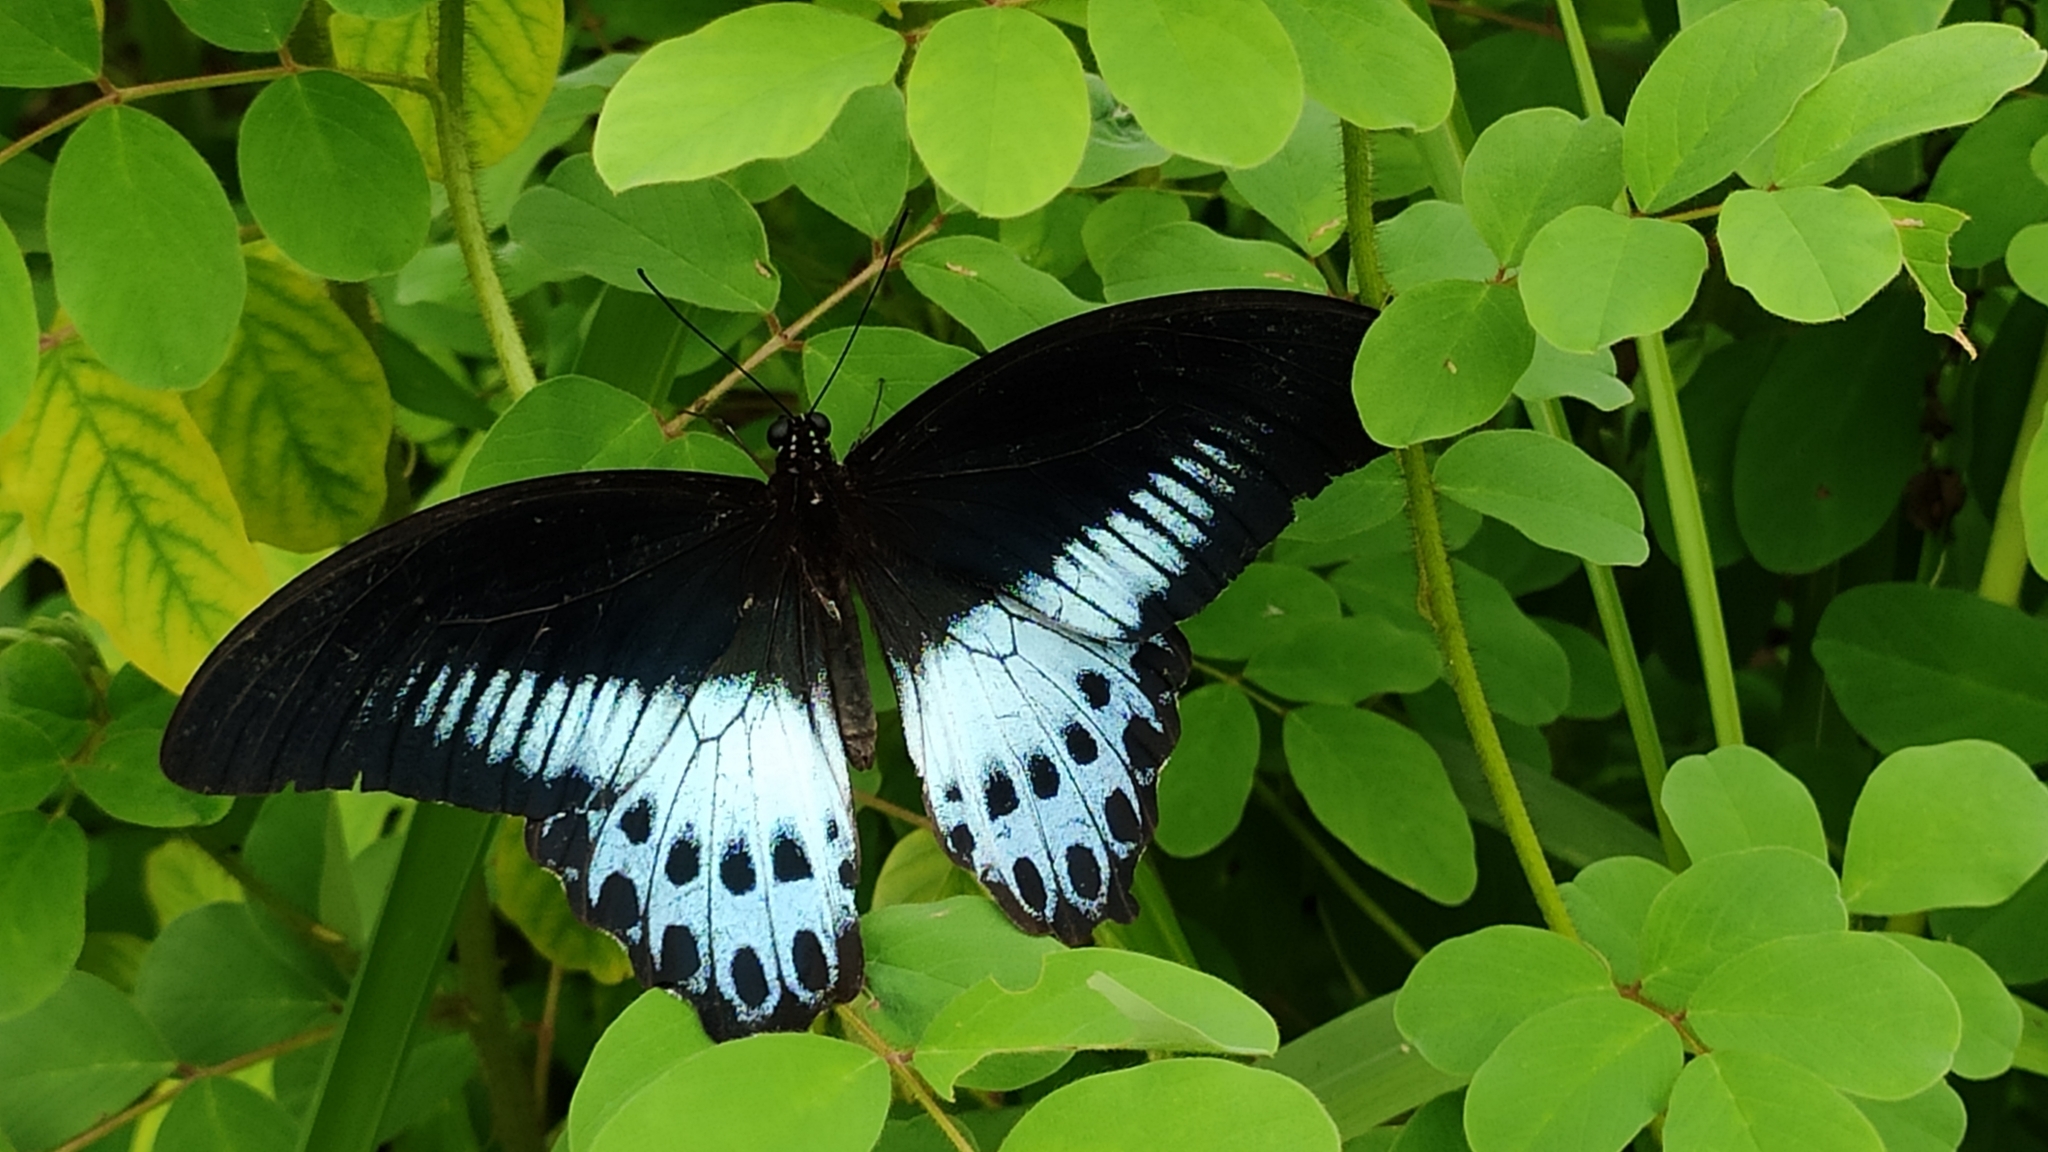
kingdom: Animalia
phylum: Arthropoda
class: Insecta
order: Lepidoptera
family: Papilionidae
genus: Papilio
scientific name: Papilio memnon
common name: Great mormon
